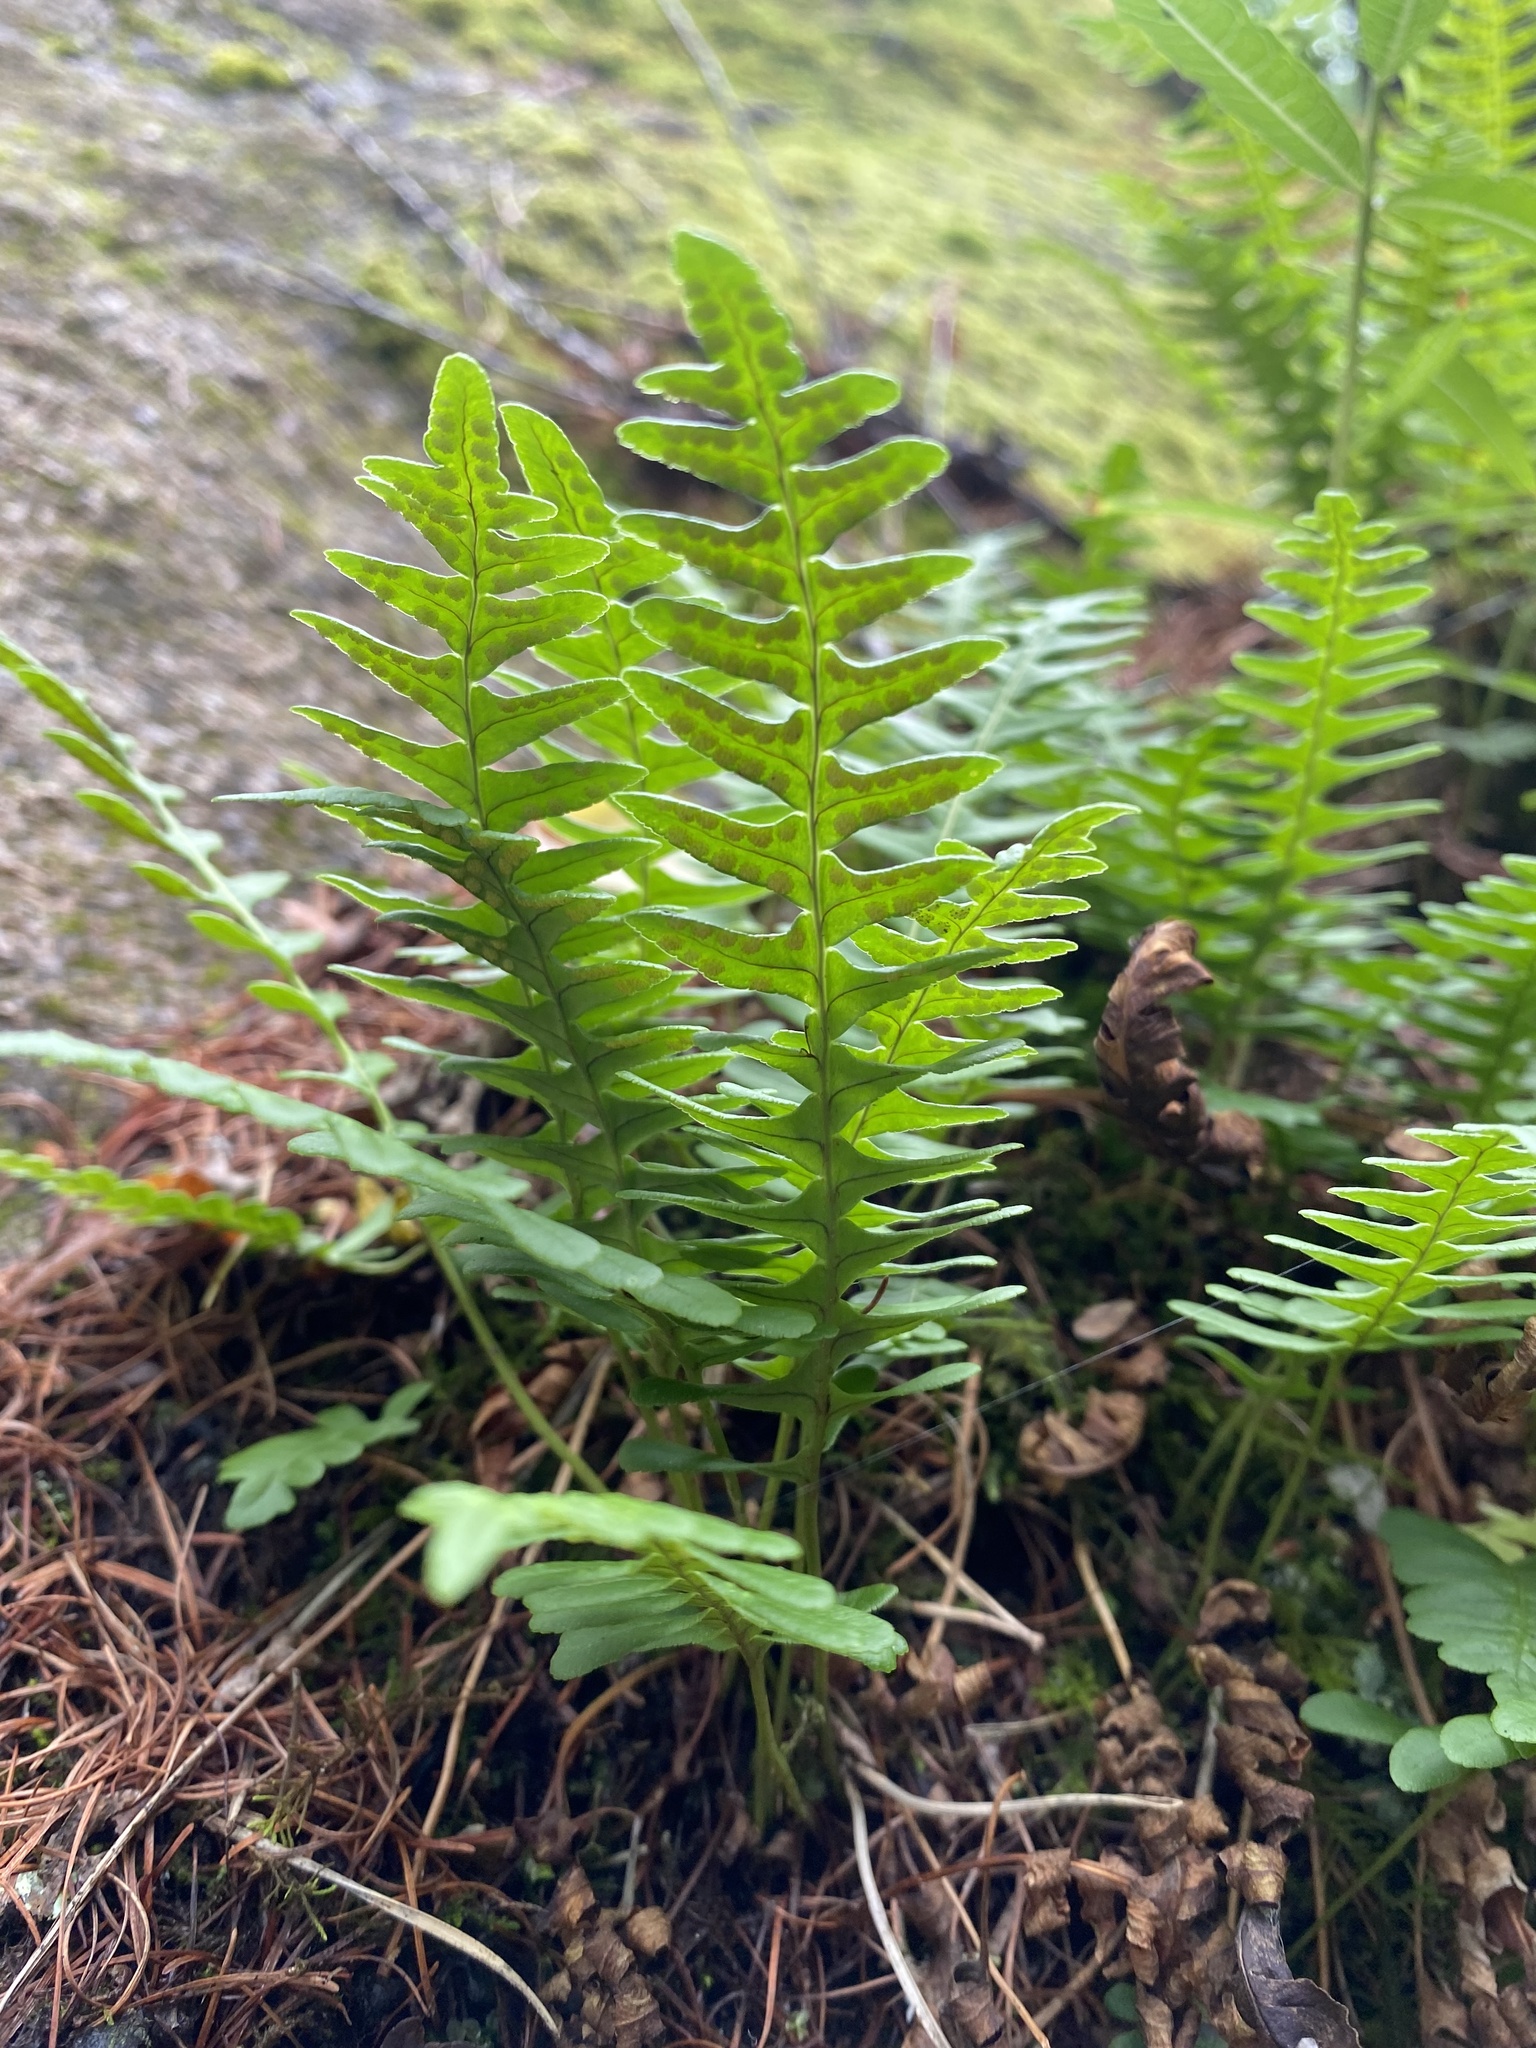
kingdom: Plantae
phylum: Tracheophyta
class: Polypodiopsida
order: Polypodiales
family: Polypodiaceae
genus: Polypodium
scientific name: Polypodium sibiricum
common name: Siberian polypody
